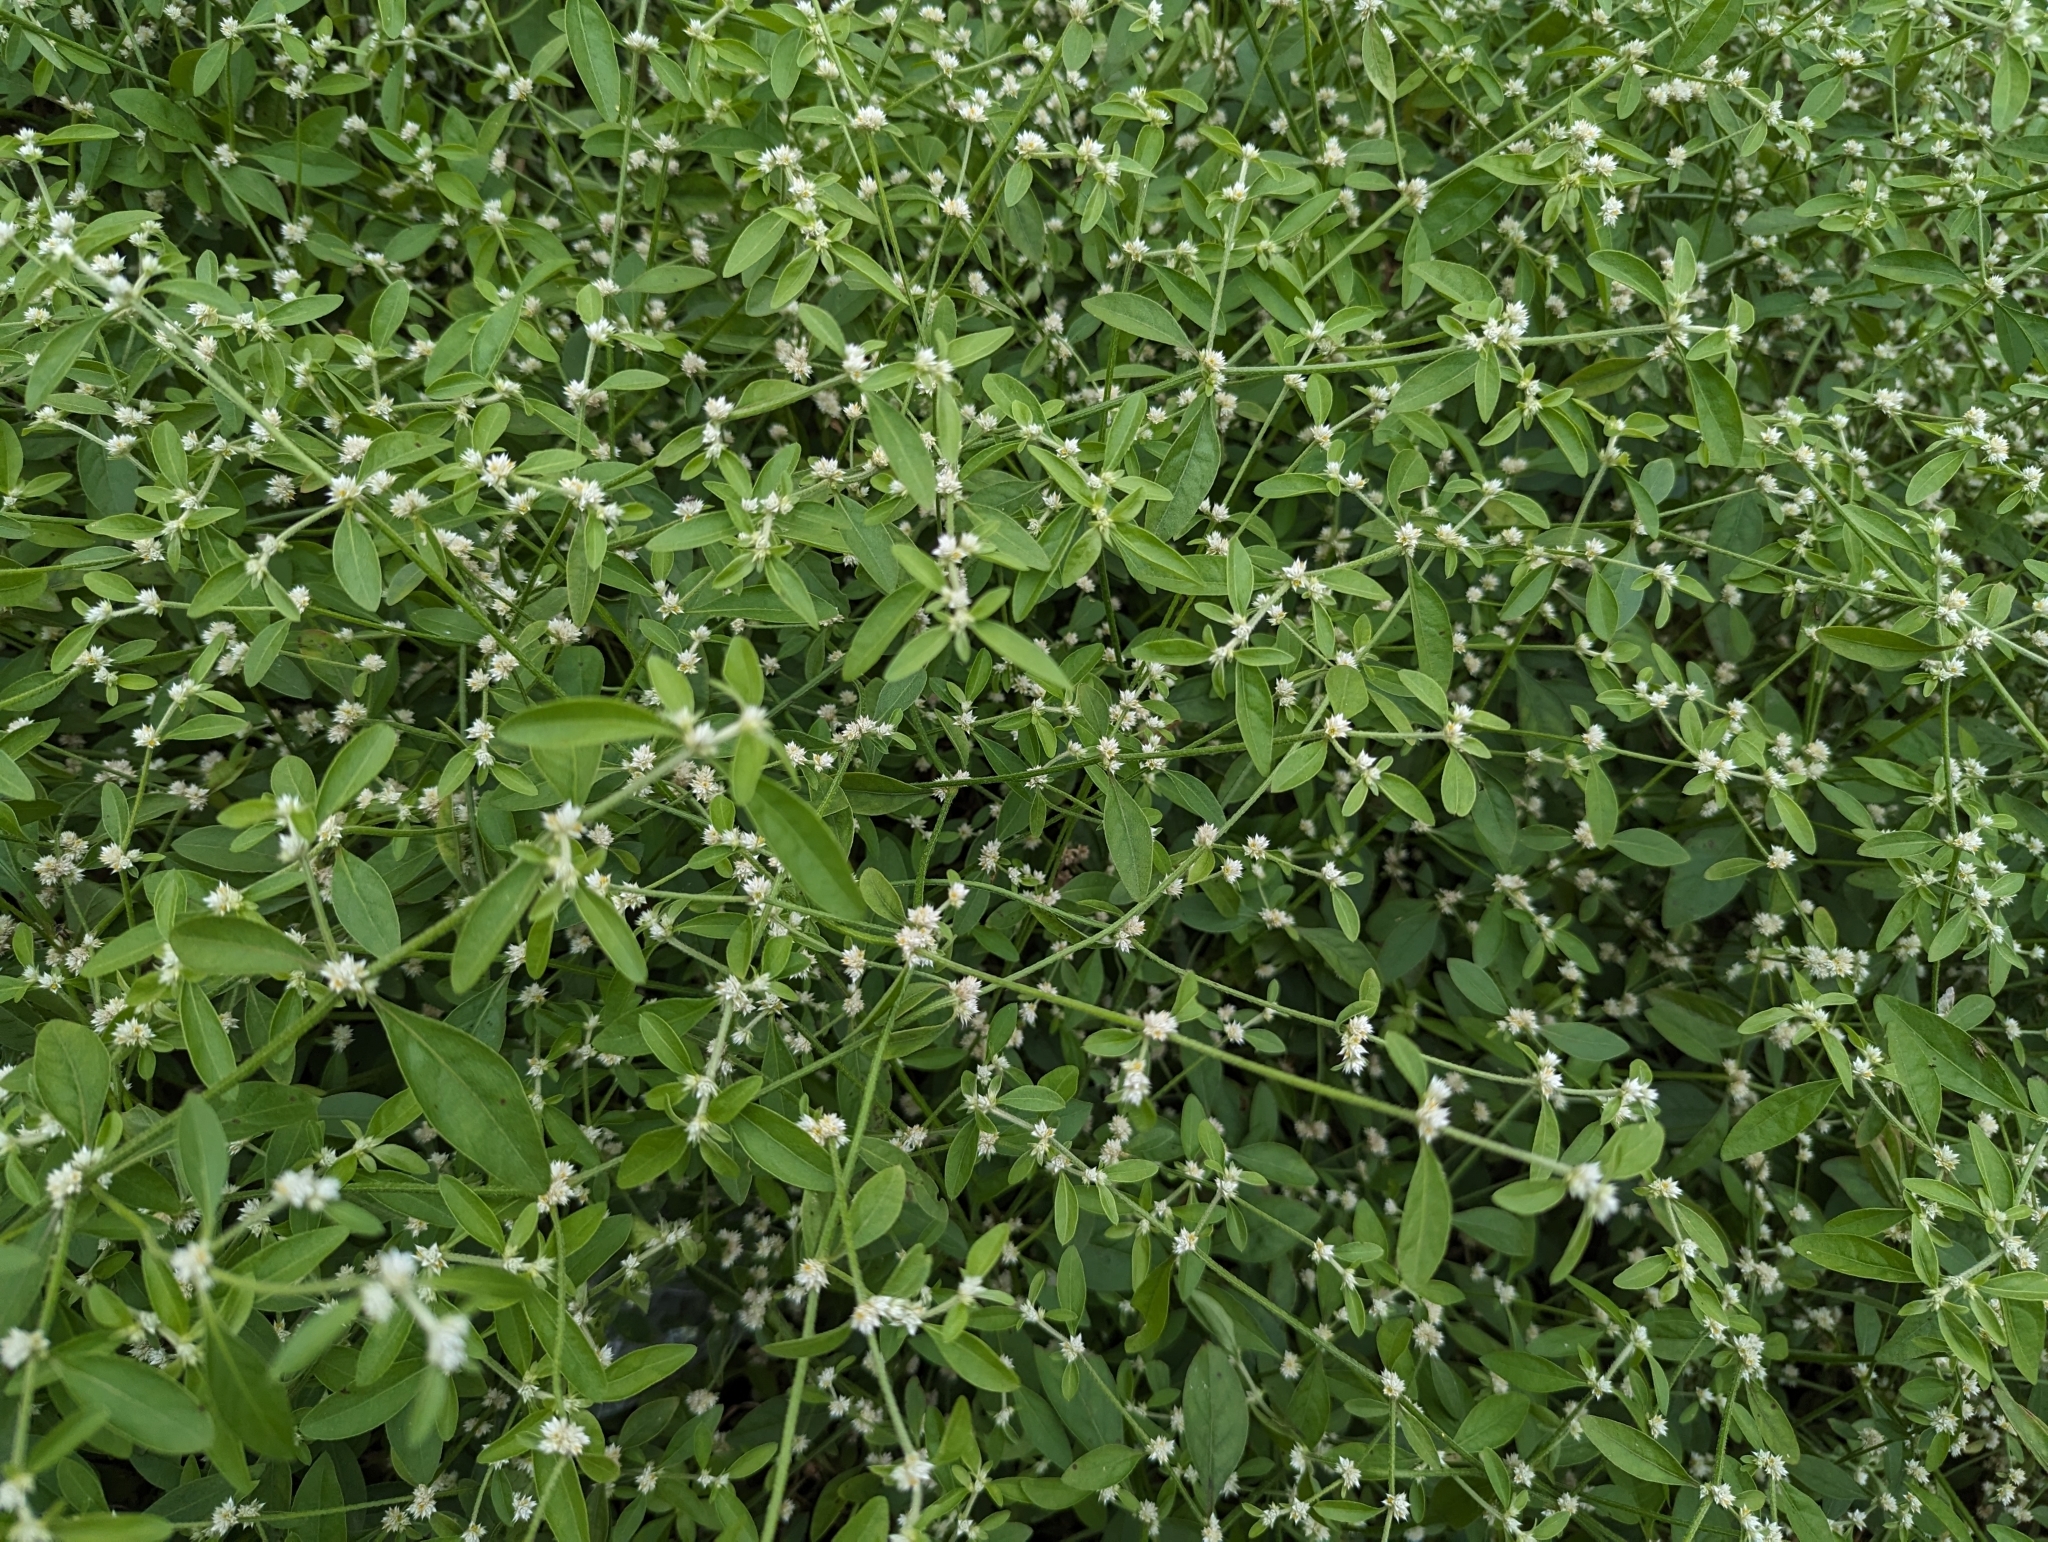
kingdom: Plantae
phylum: Tracheophyta
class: Magnoliopsida
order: Caryophyllales
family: Amaranthaceae
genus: Alternanthera
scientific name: Alternanthera ficoidea
